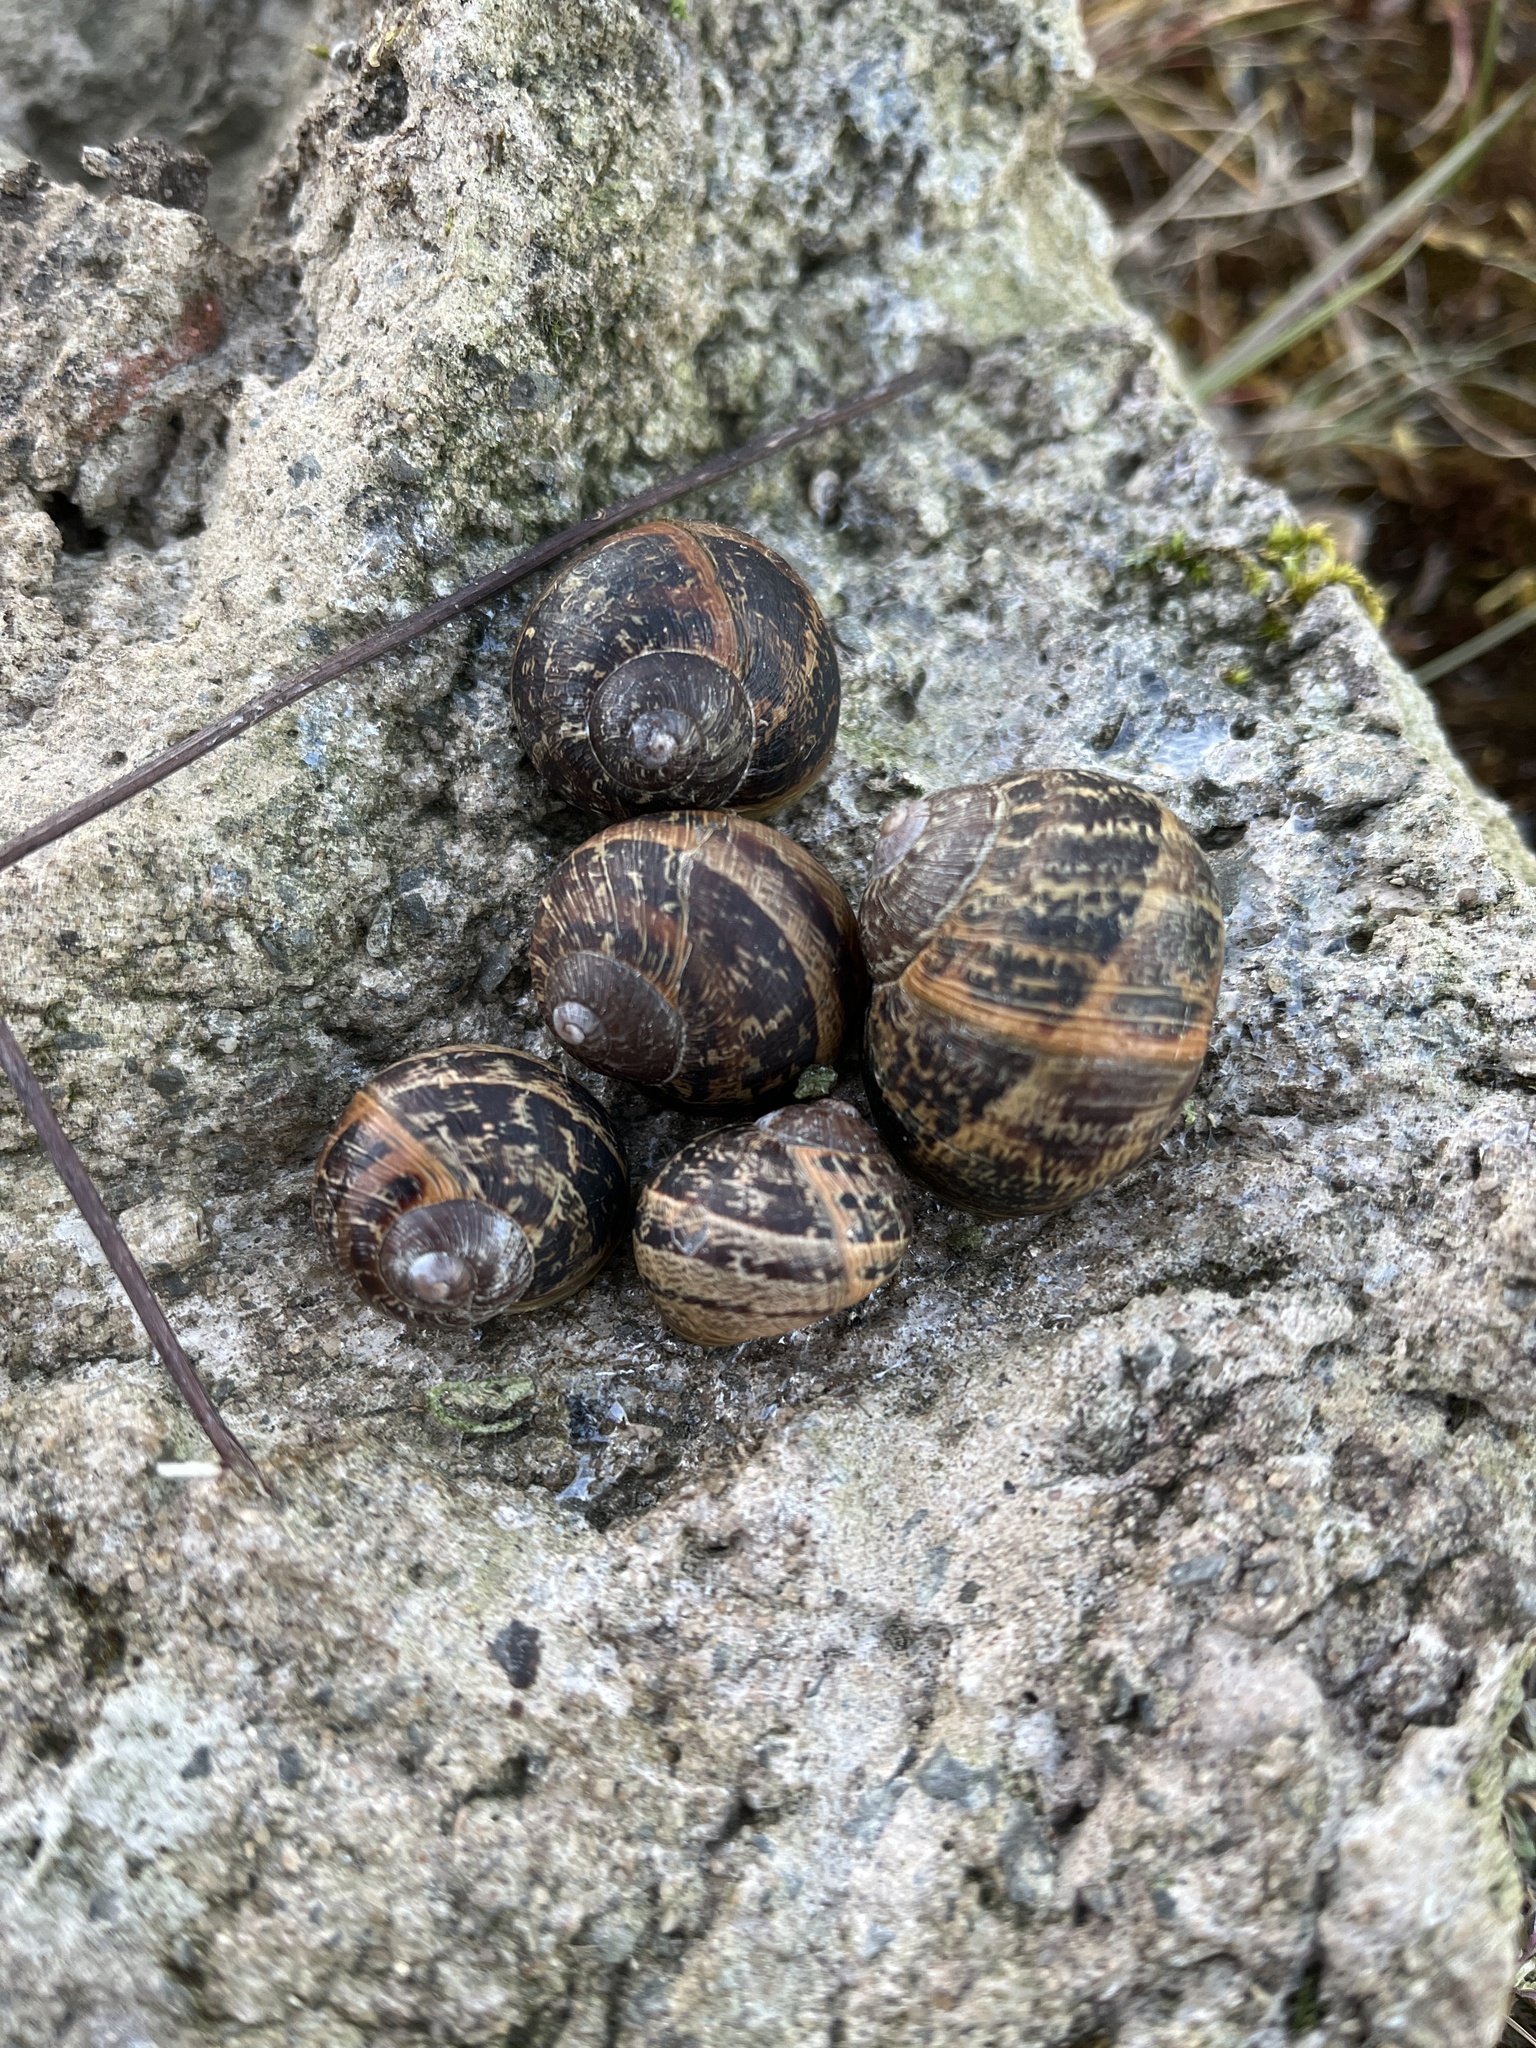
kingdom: Animalia
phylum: Mollusca
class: Gastropoda
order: Stylommatophora
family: Helicidae
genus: Cornu
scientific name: Cornu aspersum
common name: Brown garden snail
